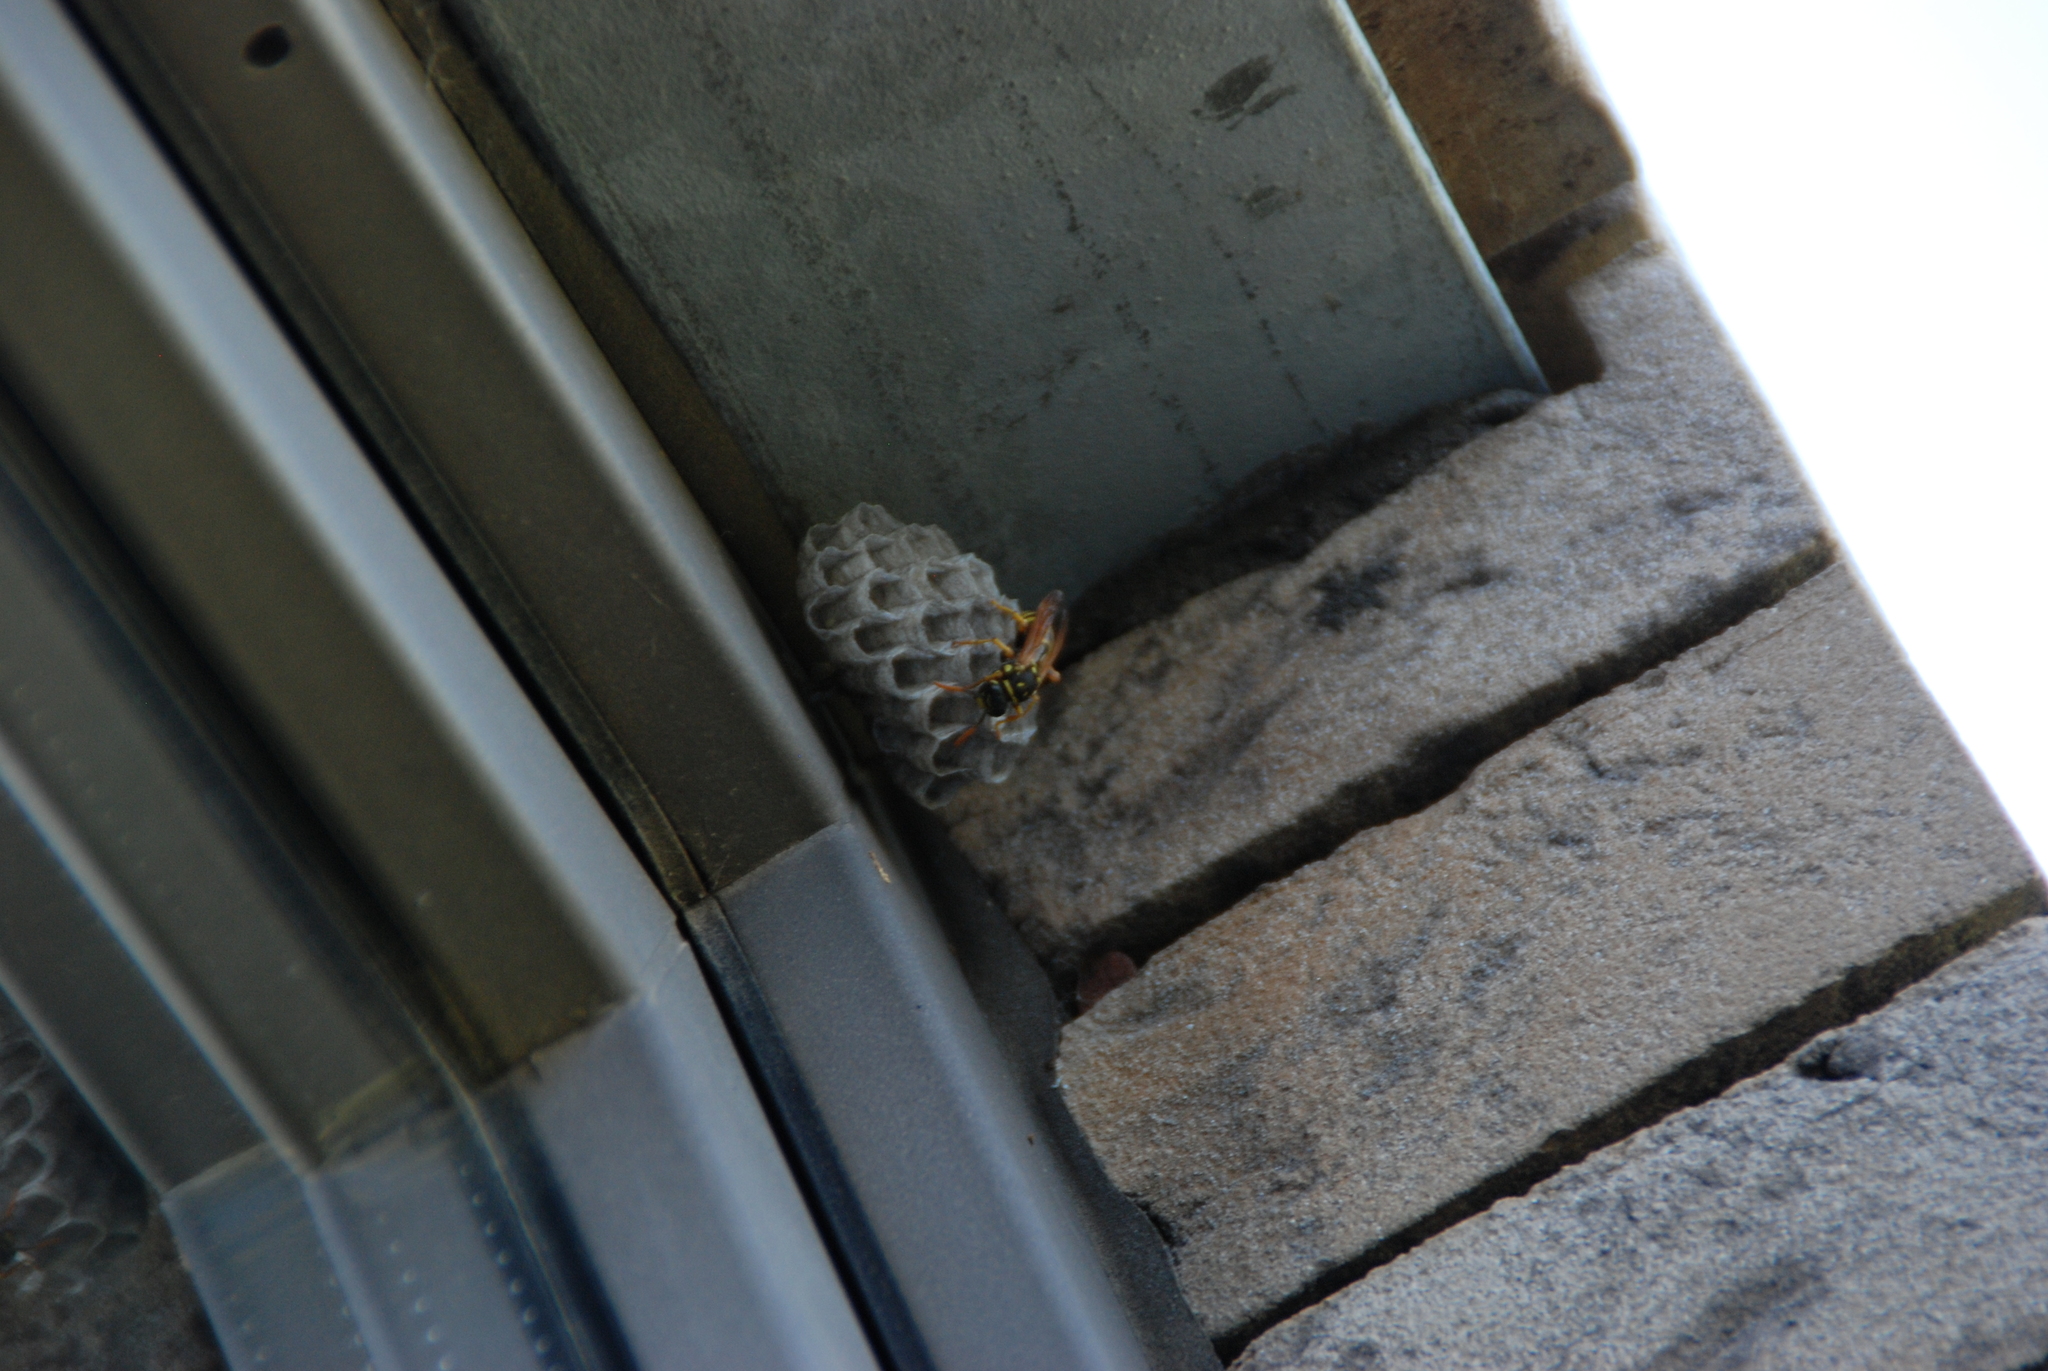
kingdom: Animalia
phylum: Arthropoda
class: Insecta
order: Hymenoptera
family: Eumenidae
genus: Polistes
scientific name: Polistes dominula
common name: Paper wasp
